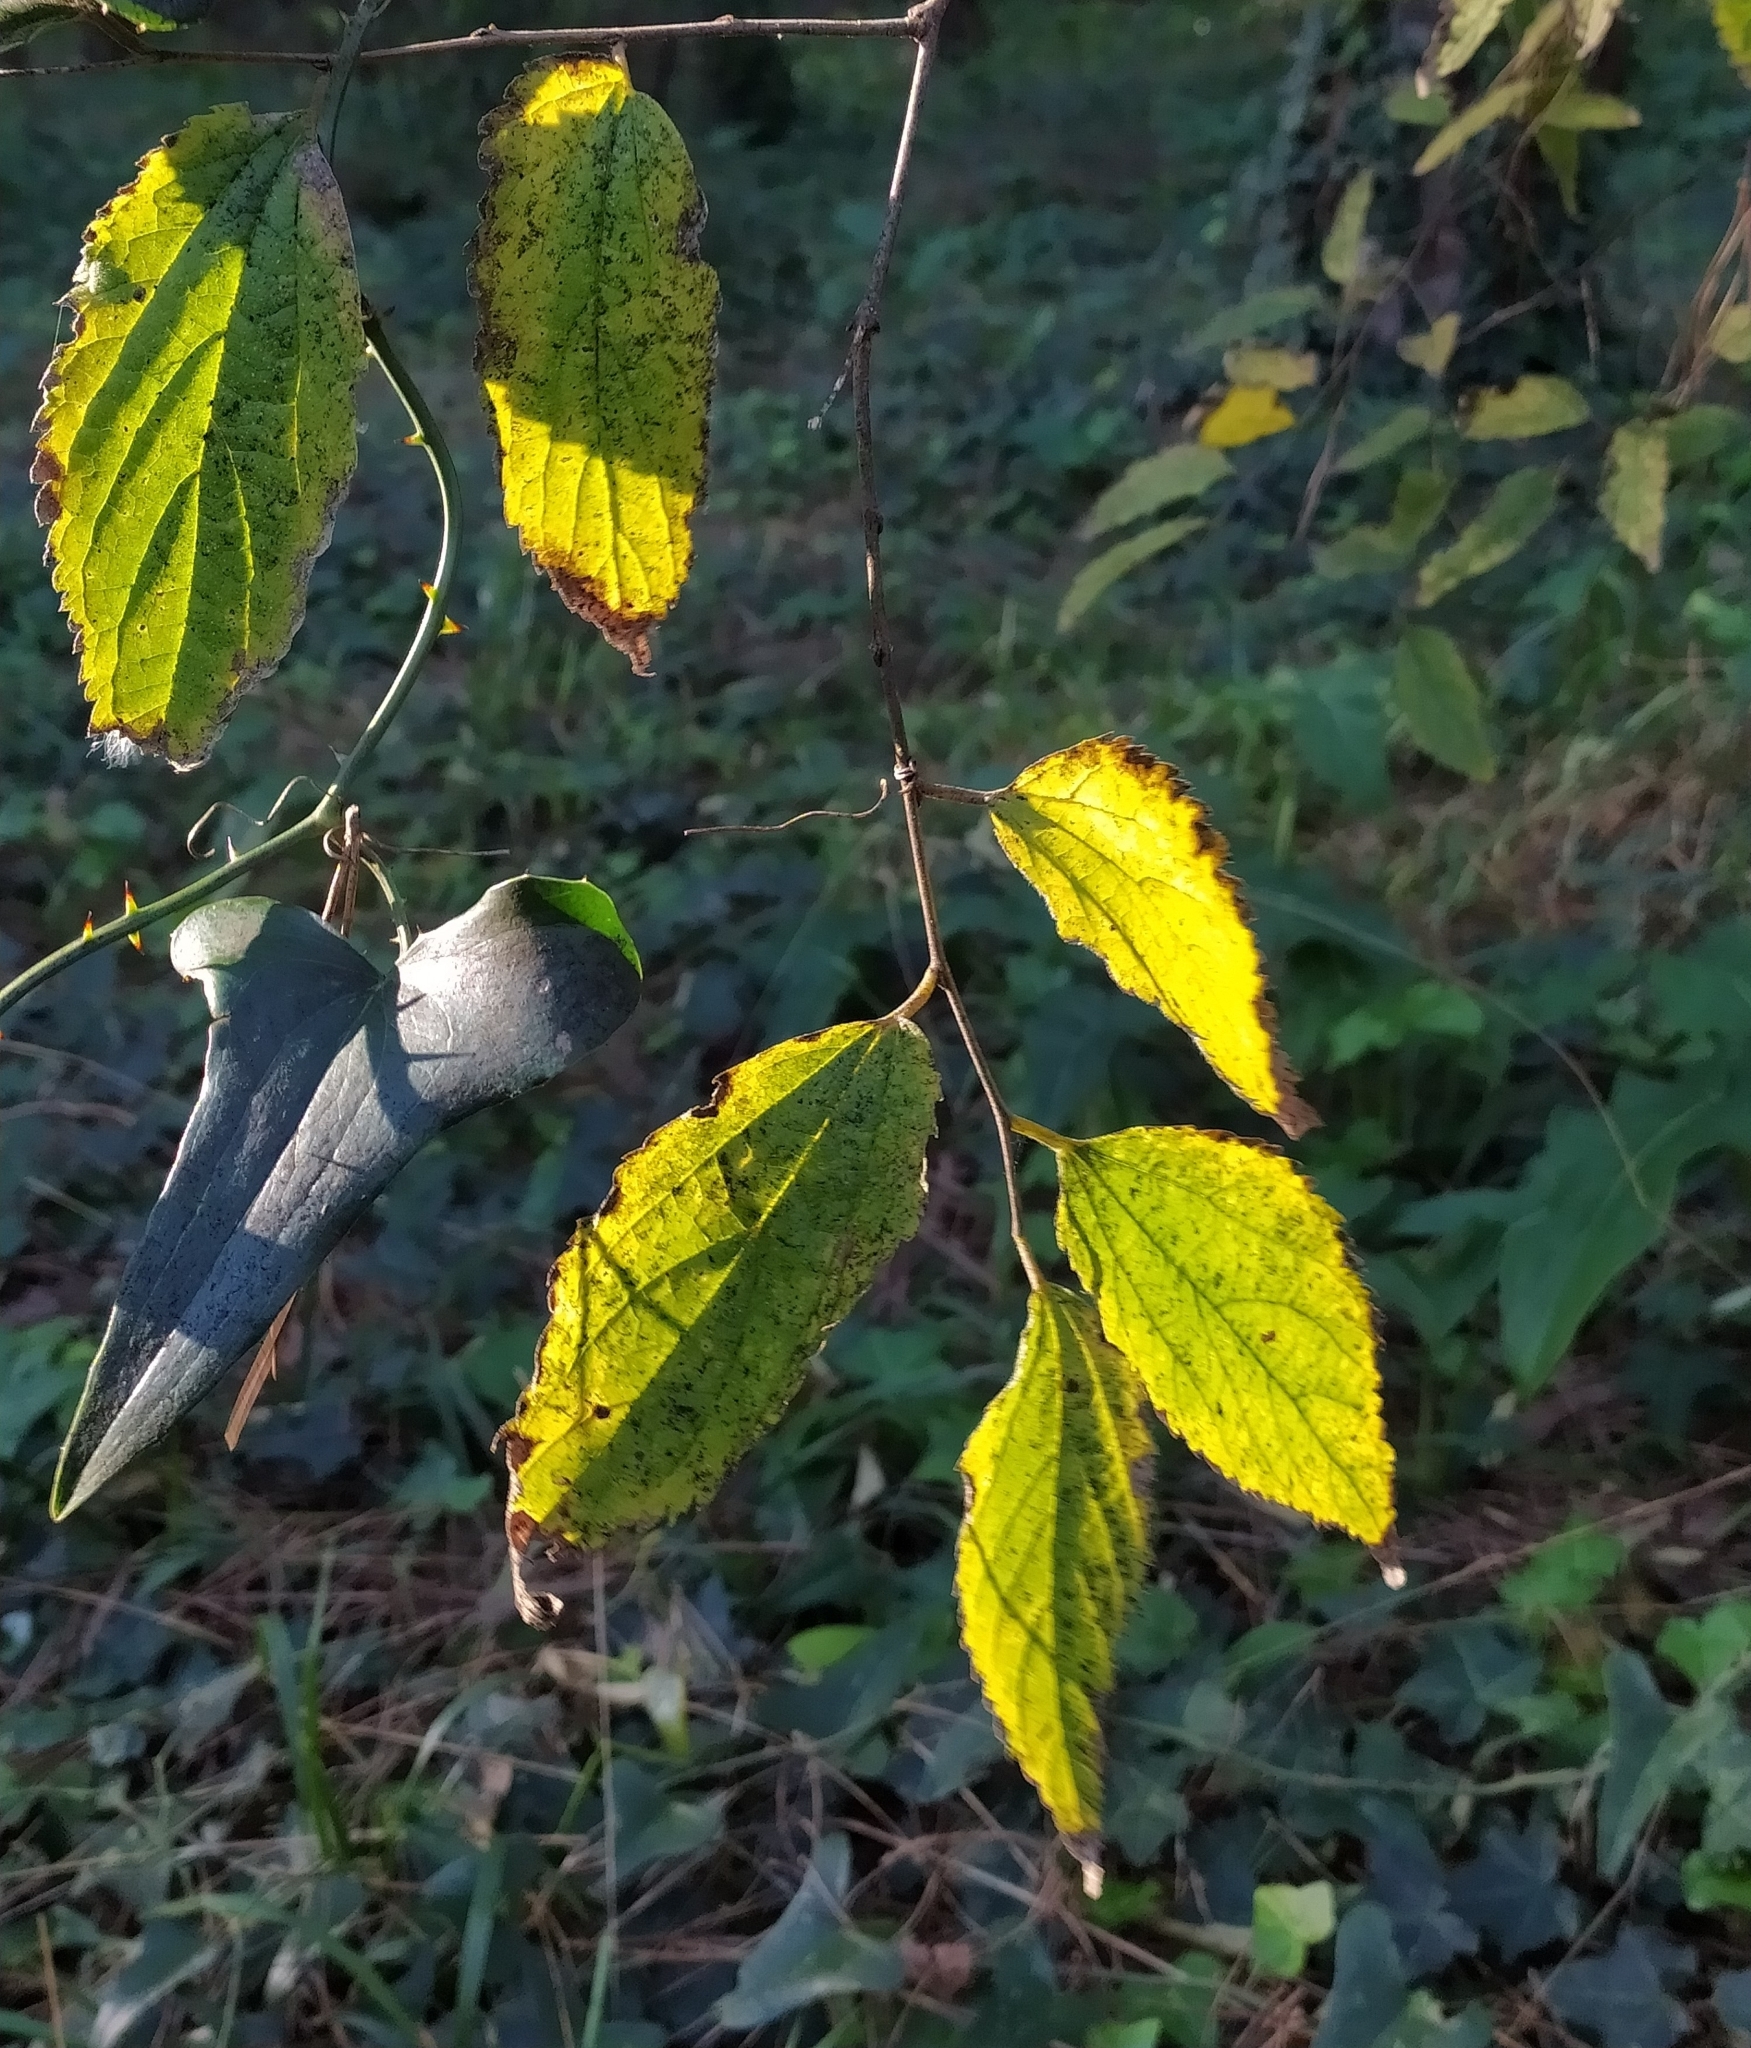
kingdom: Plantae
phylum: Tracheophyta
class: Magnoliopsida
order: Rosales
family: Cannabaceae
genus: Celtis
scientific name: Celtis australis
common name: European hackberry
